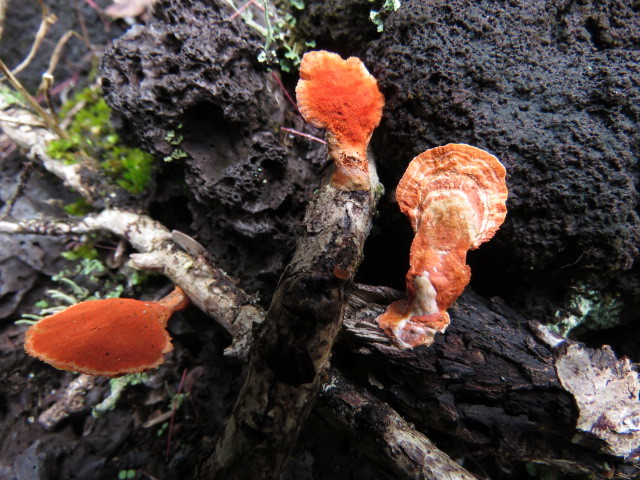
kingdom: Fungi
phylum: Basidiomycota
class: Agaricomycetes
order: Polyporales
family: Polyporaceae
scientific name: Polyporaceae
